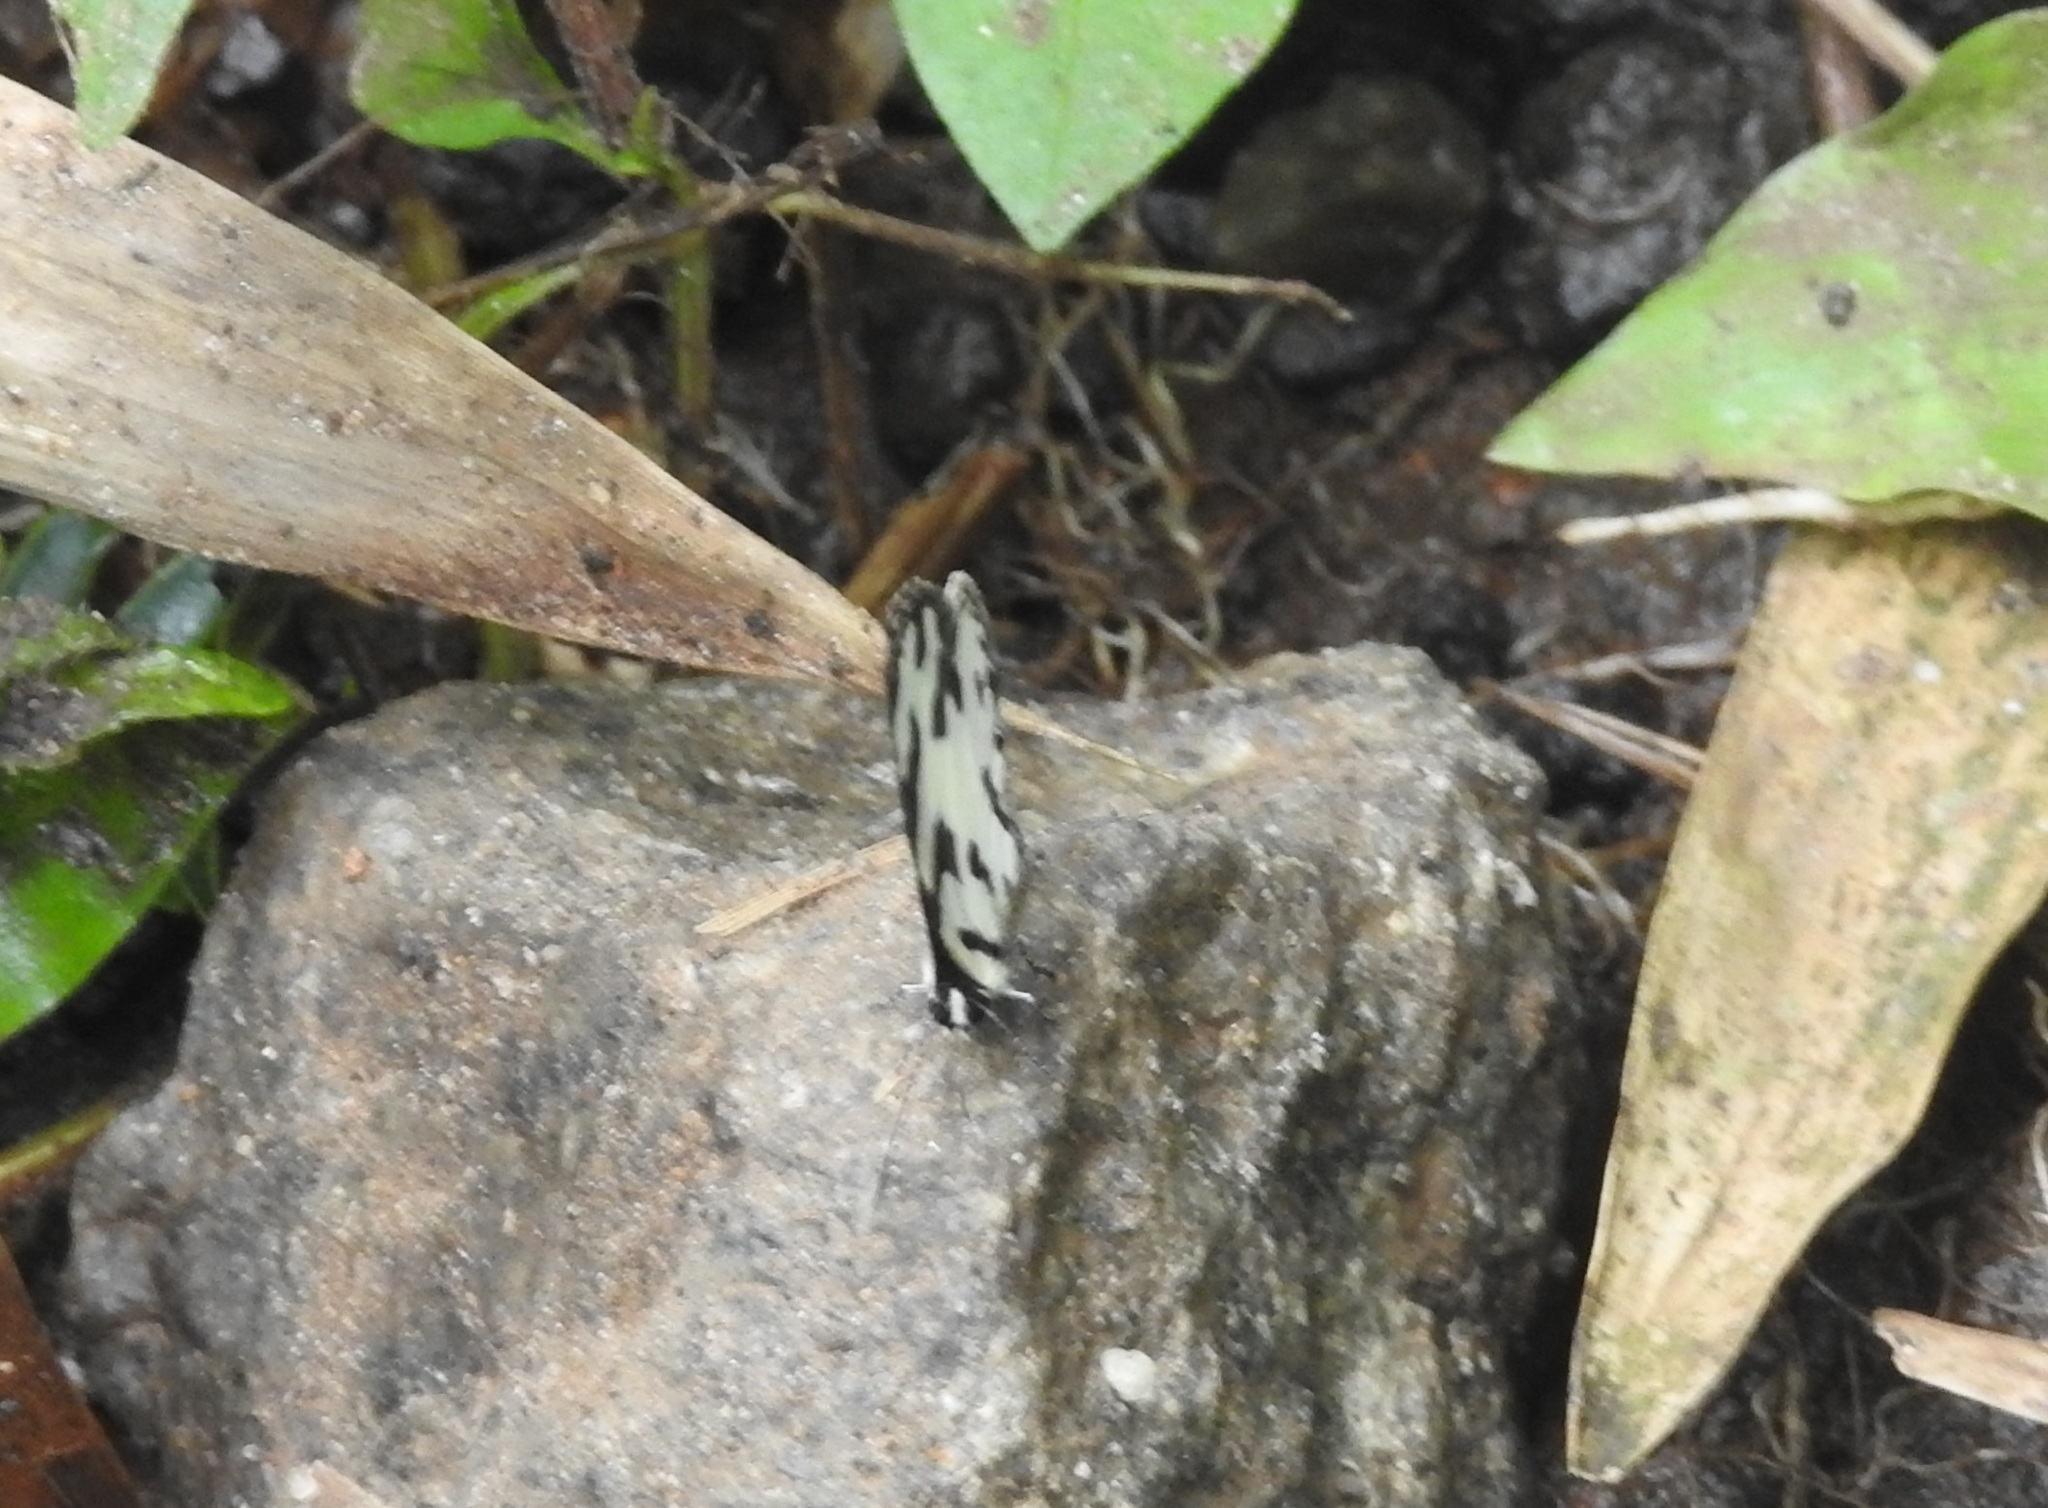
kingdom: Animalia
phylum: Arthropoda
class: Insecta
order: Lepidoptera
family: Lycaenidae
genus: Caleta
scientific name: Caleta decidia
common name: Angled pierrot
